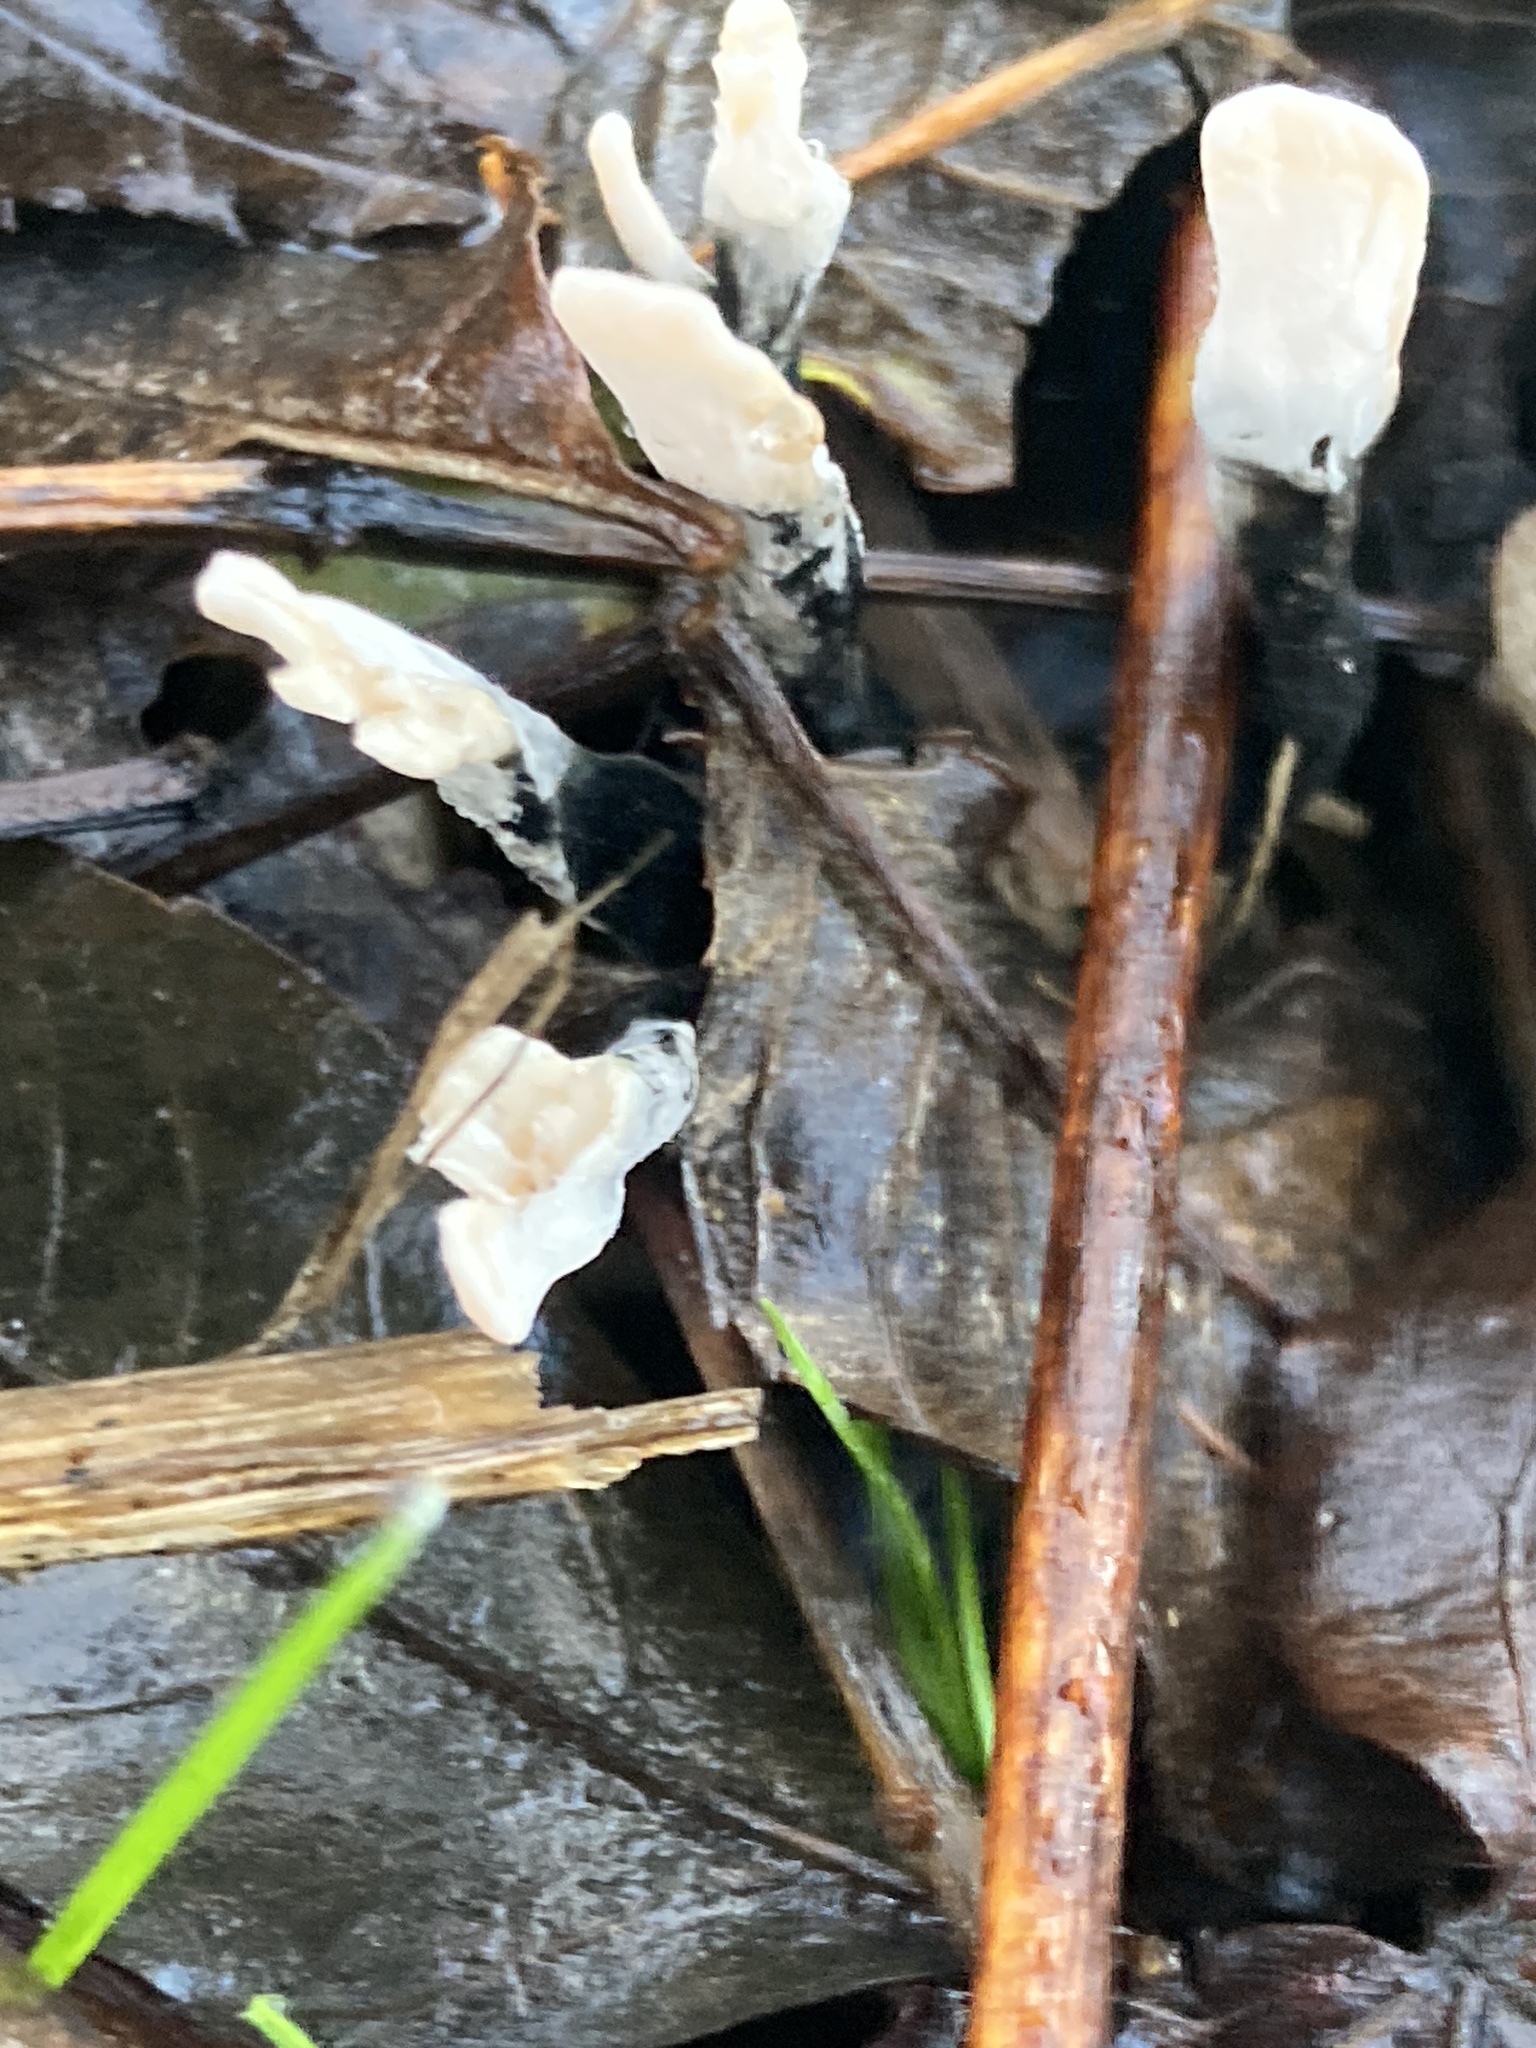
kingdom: Fungi
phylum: Ascomycota
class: Sordariomycetes
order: Xylariales
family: Xylariaceae
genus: Xylaria
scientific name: Xylaria hypoxylon
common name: Candle-snuff fungus
